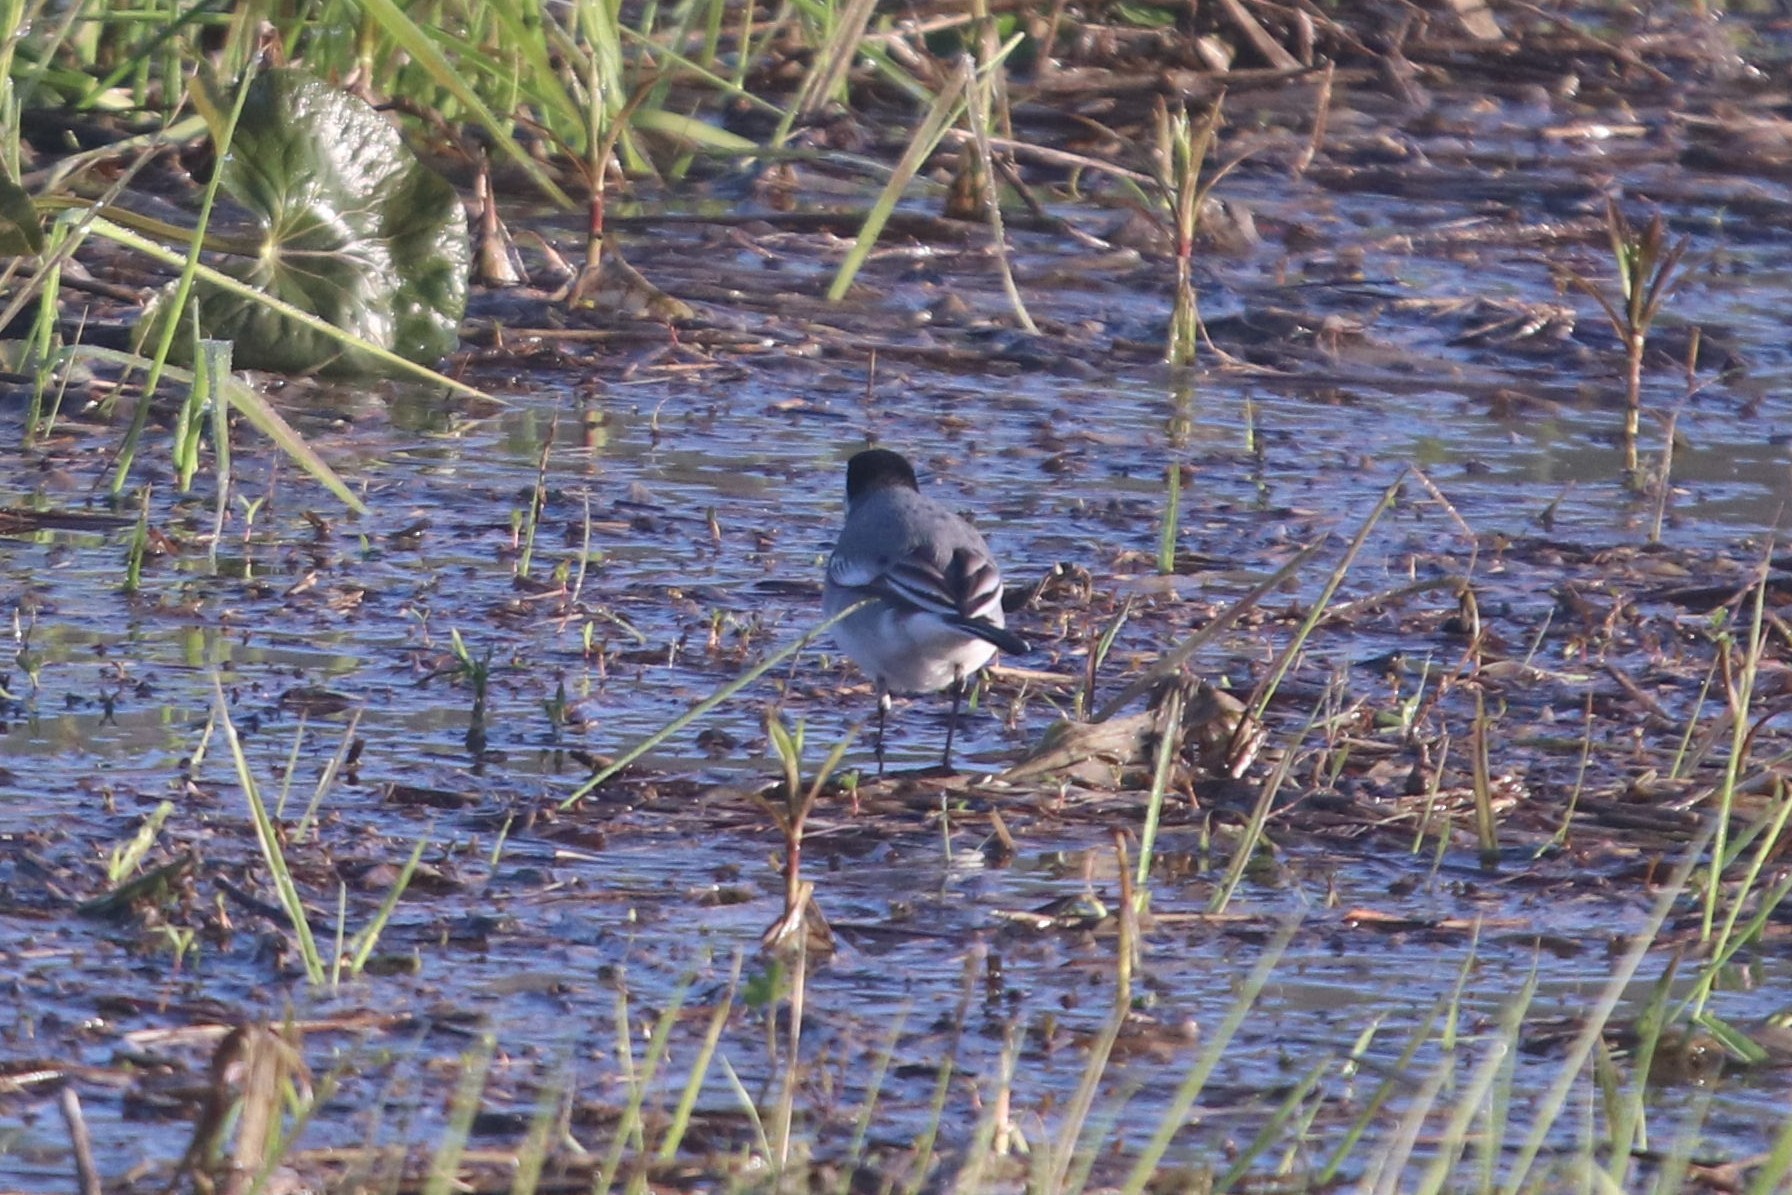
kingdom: Animalia
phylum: Chordata
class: Aves
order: Passeriformes
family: Motacillidae
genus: Motacilla
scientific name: Motacilla alba
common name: White wagtail
